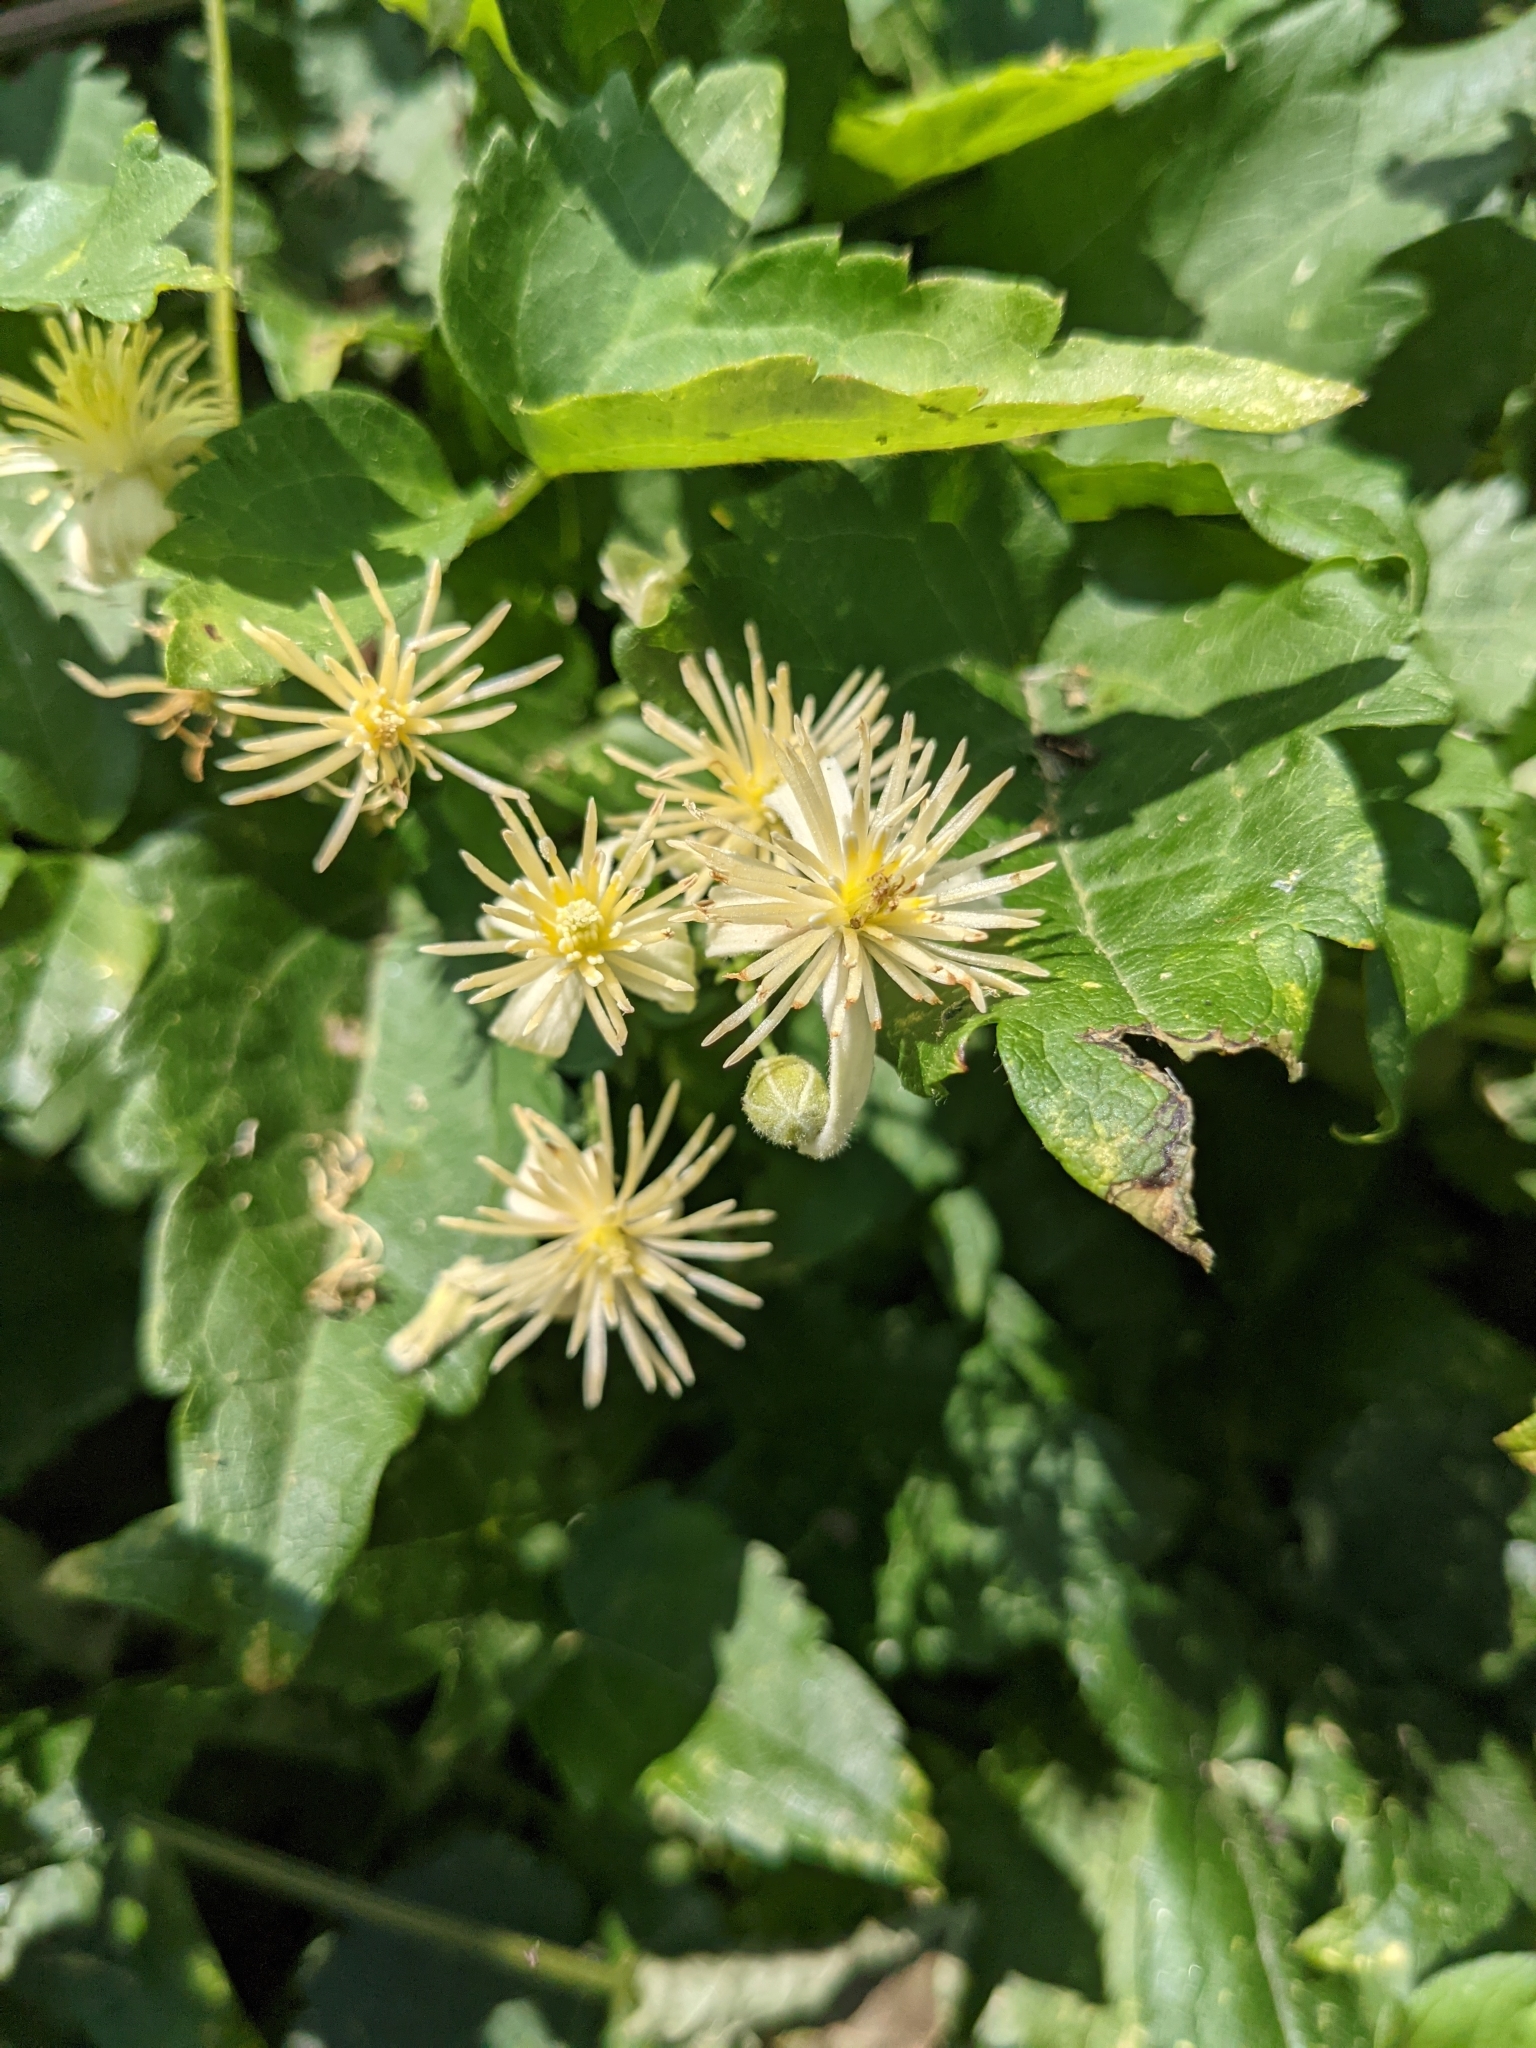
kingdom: Plantae
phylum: Tracheophyta
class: Magnoliopsida
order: Ranunculales
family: Ranunculaceae
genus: Clematis
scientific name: Clematis vitalba
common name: Evergreen clematis
